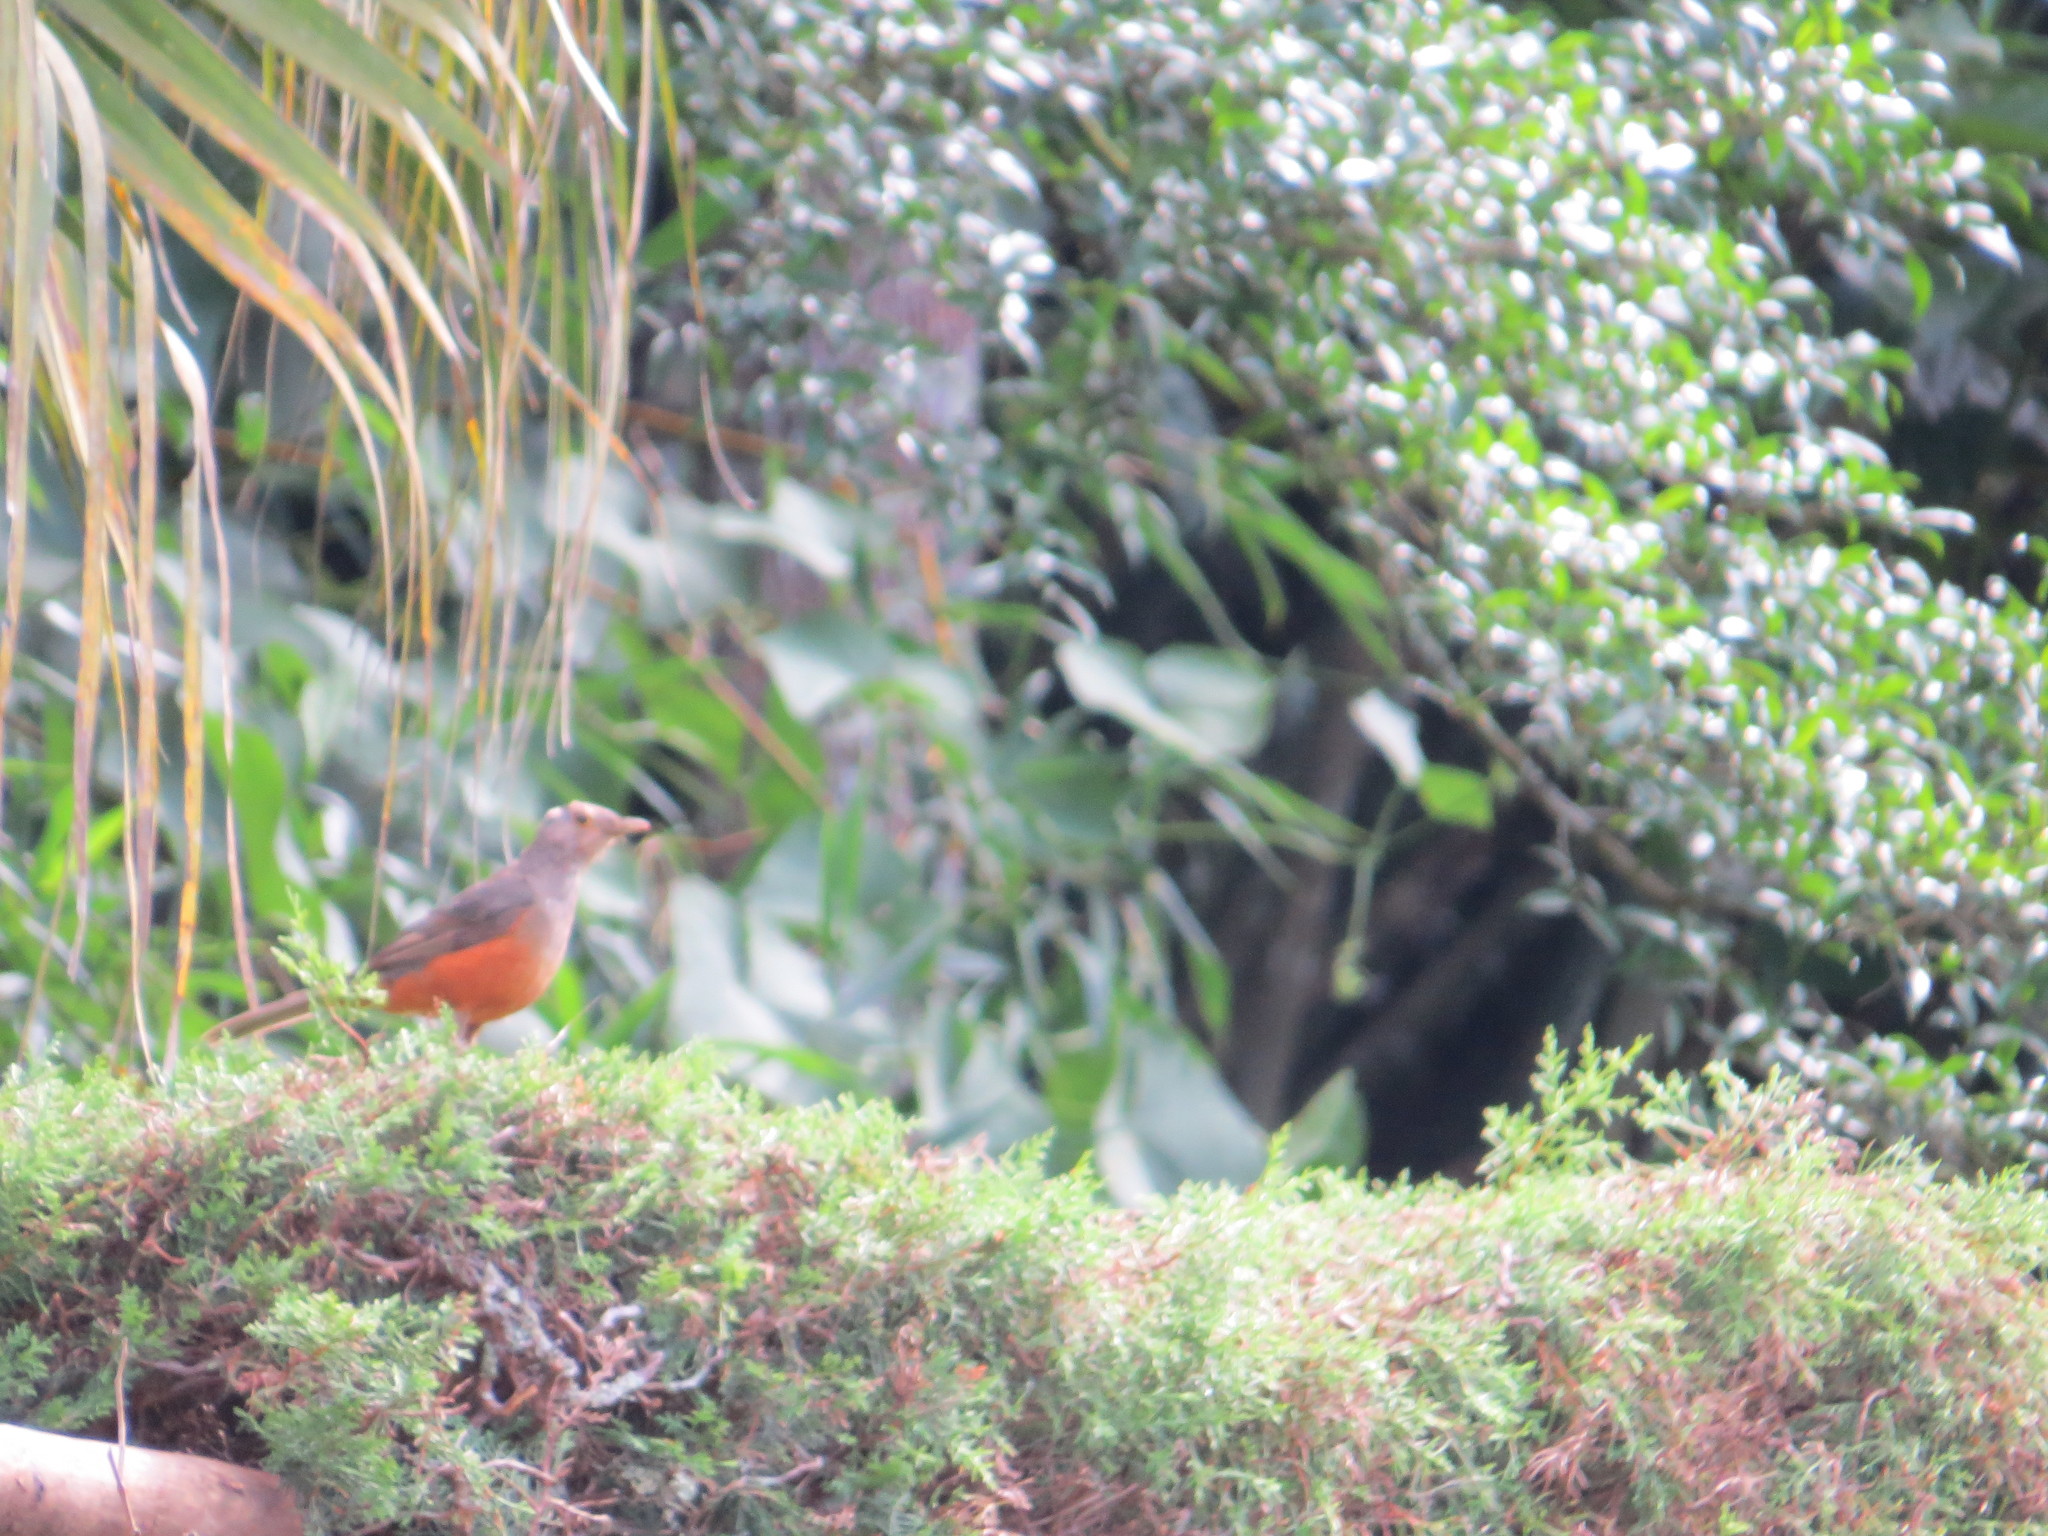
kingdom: Animalia
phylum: Chordata
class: Aves
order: Passeriformes
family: Turdidae
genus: Turdus
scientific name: Turdus rufiventris
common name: Rufous-bellied thrush
